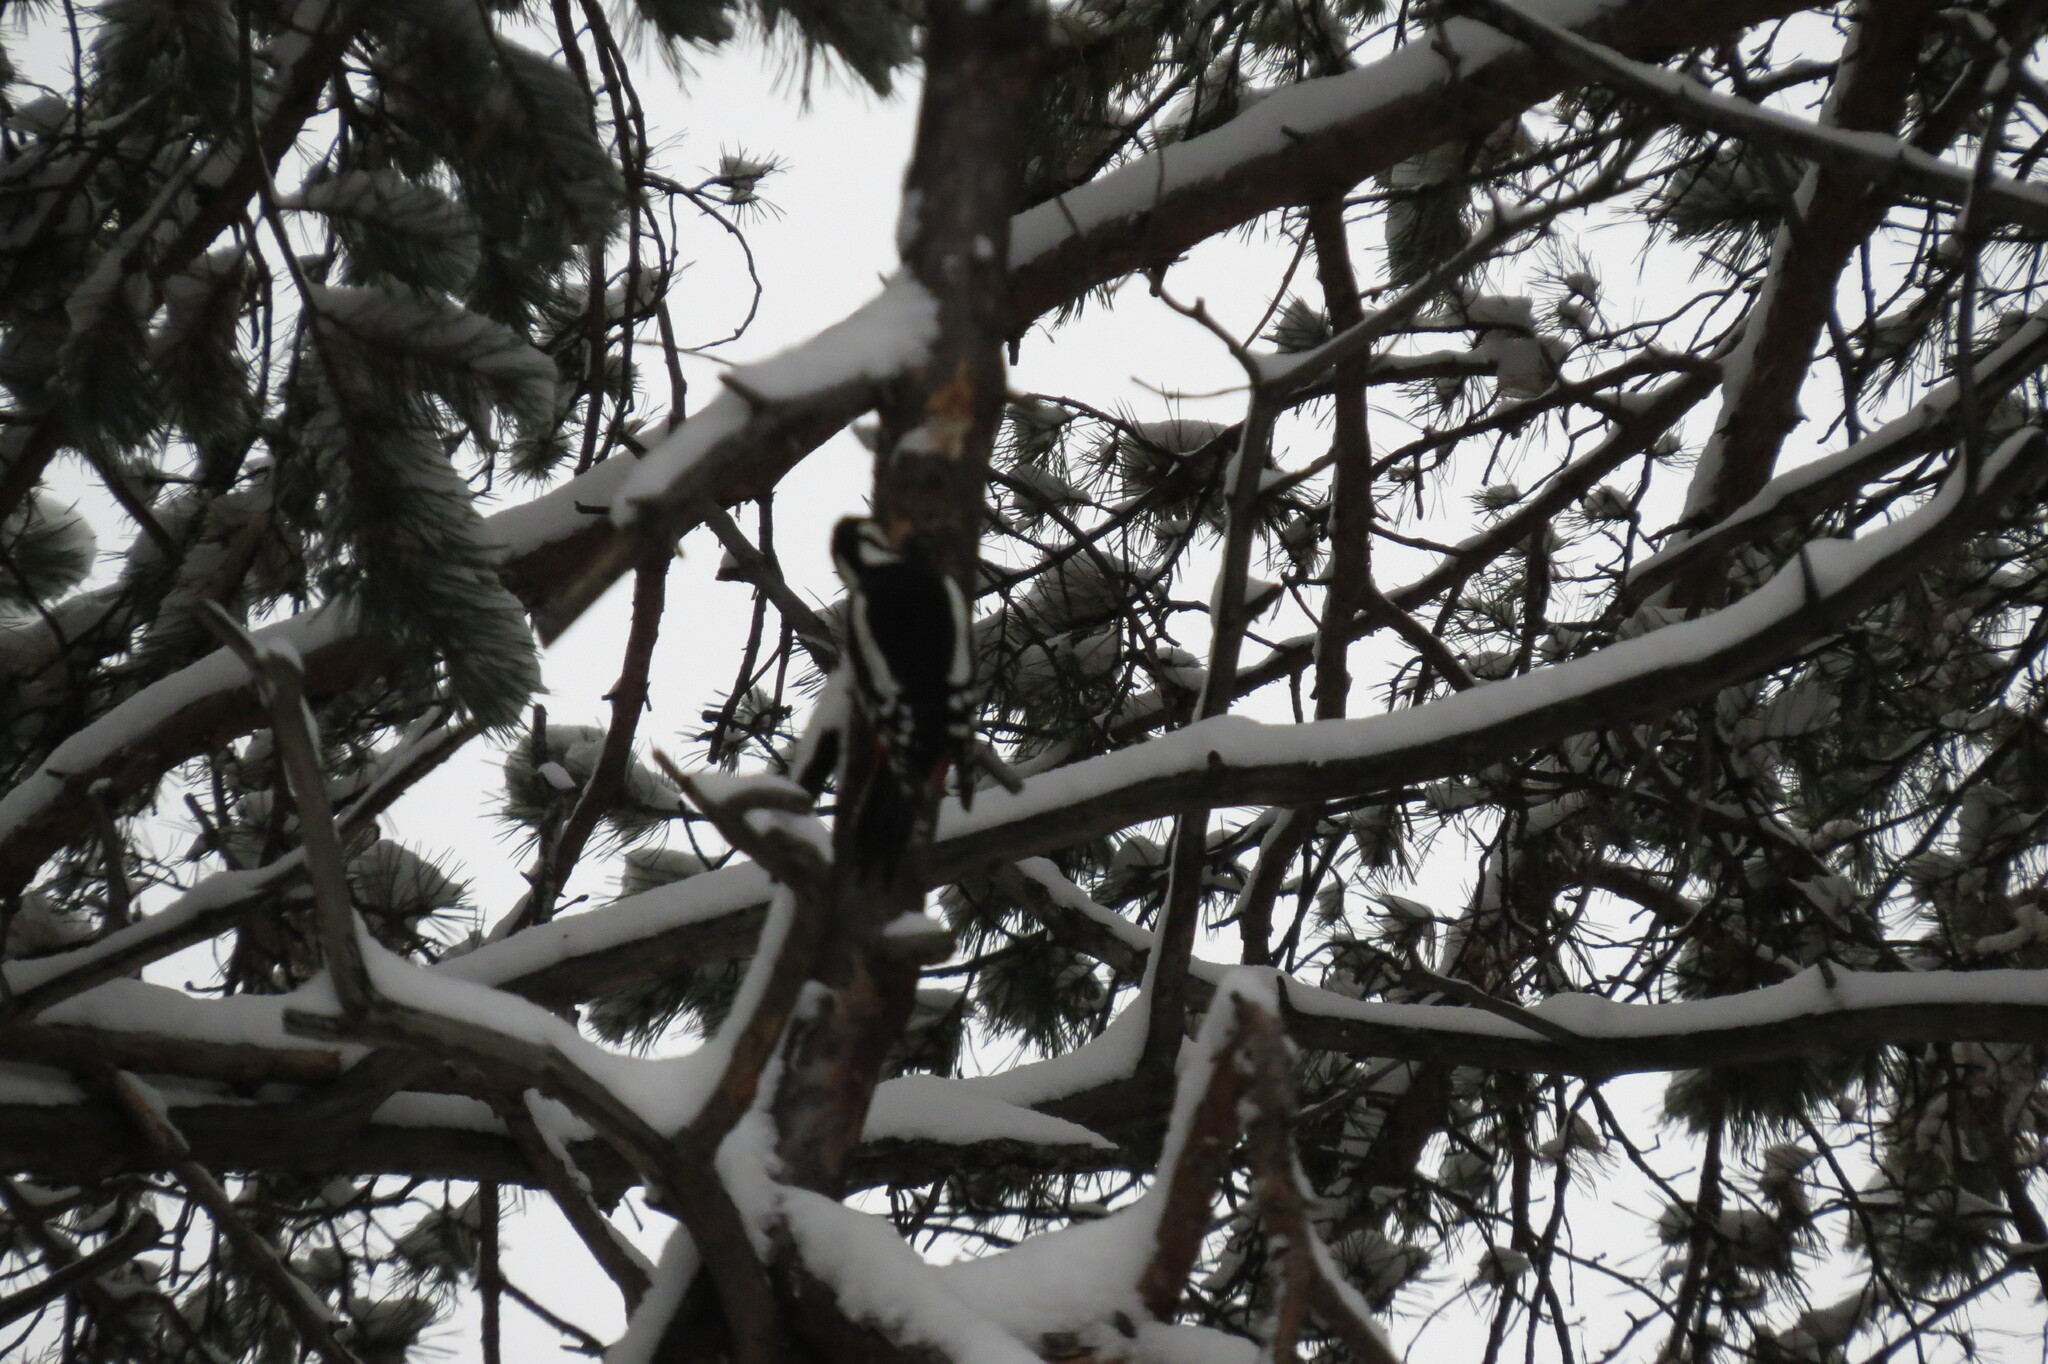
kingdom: Animalia
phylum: Chordata
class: Aves
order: Piciformes
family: Picidae
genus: Dendrocopos
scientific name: Dendrocopos major
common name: Great spotted woodpecker
